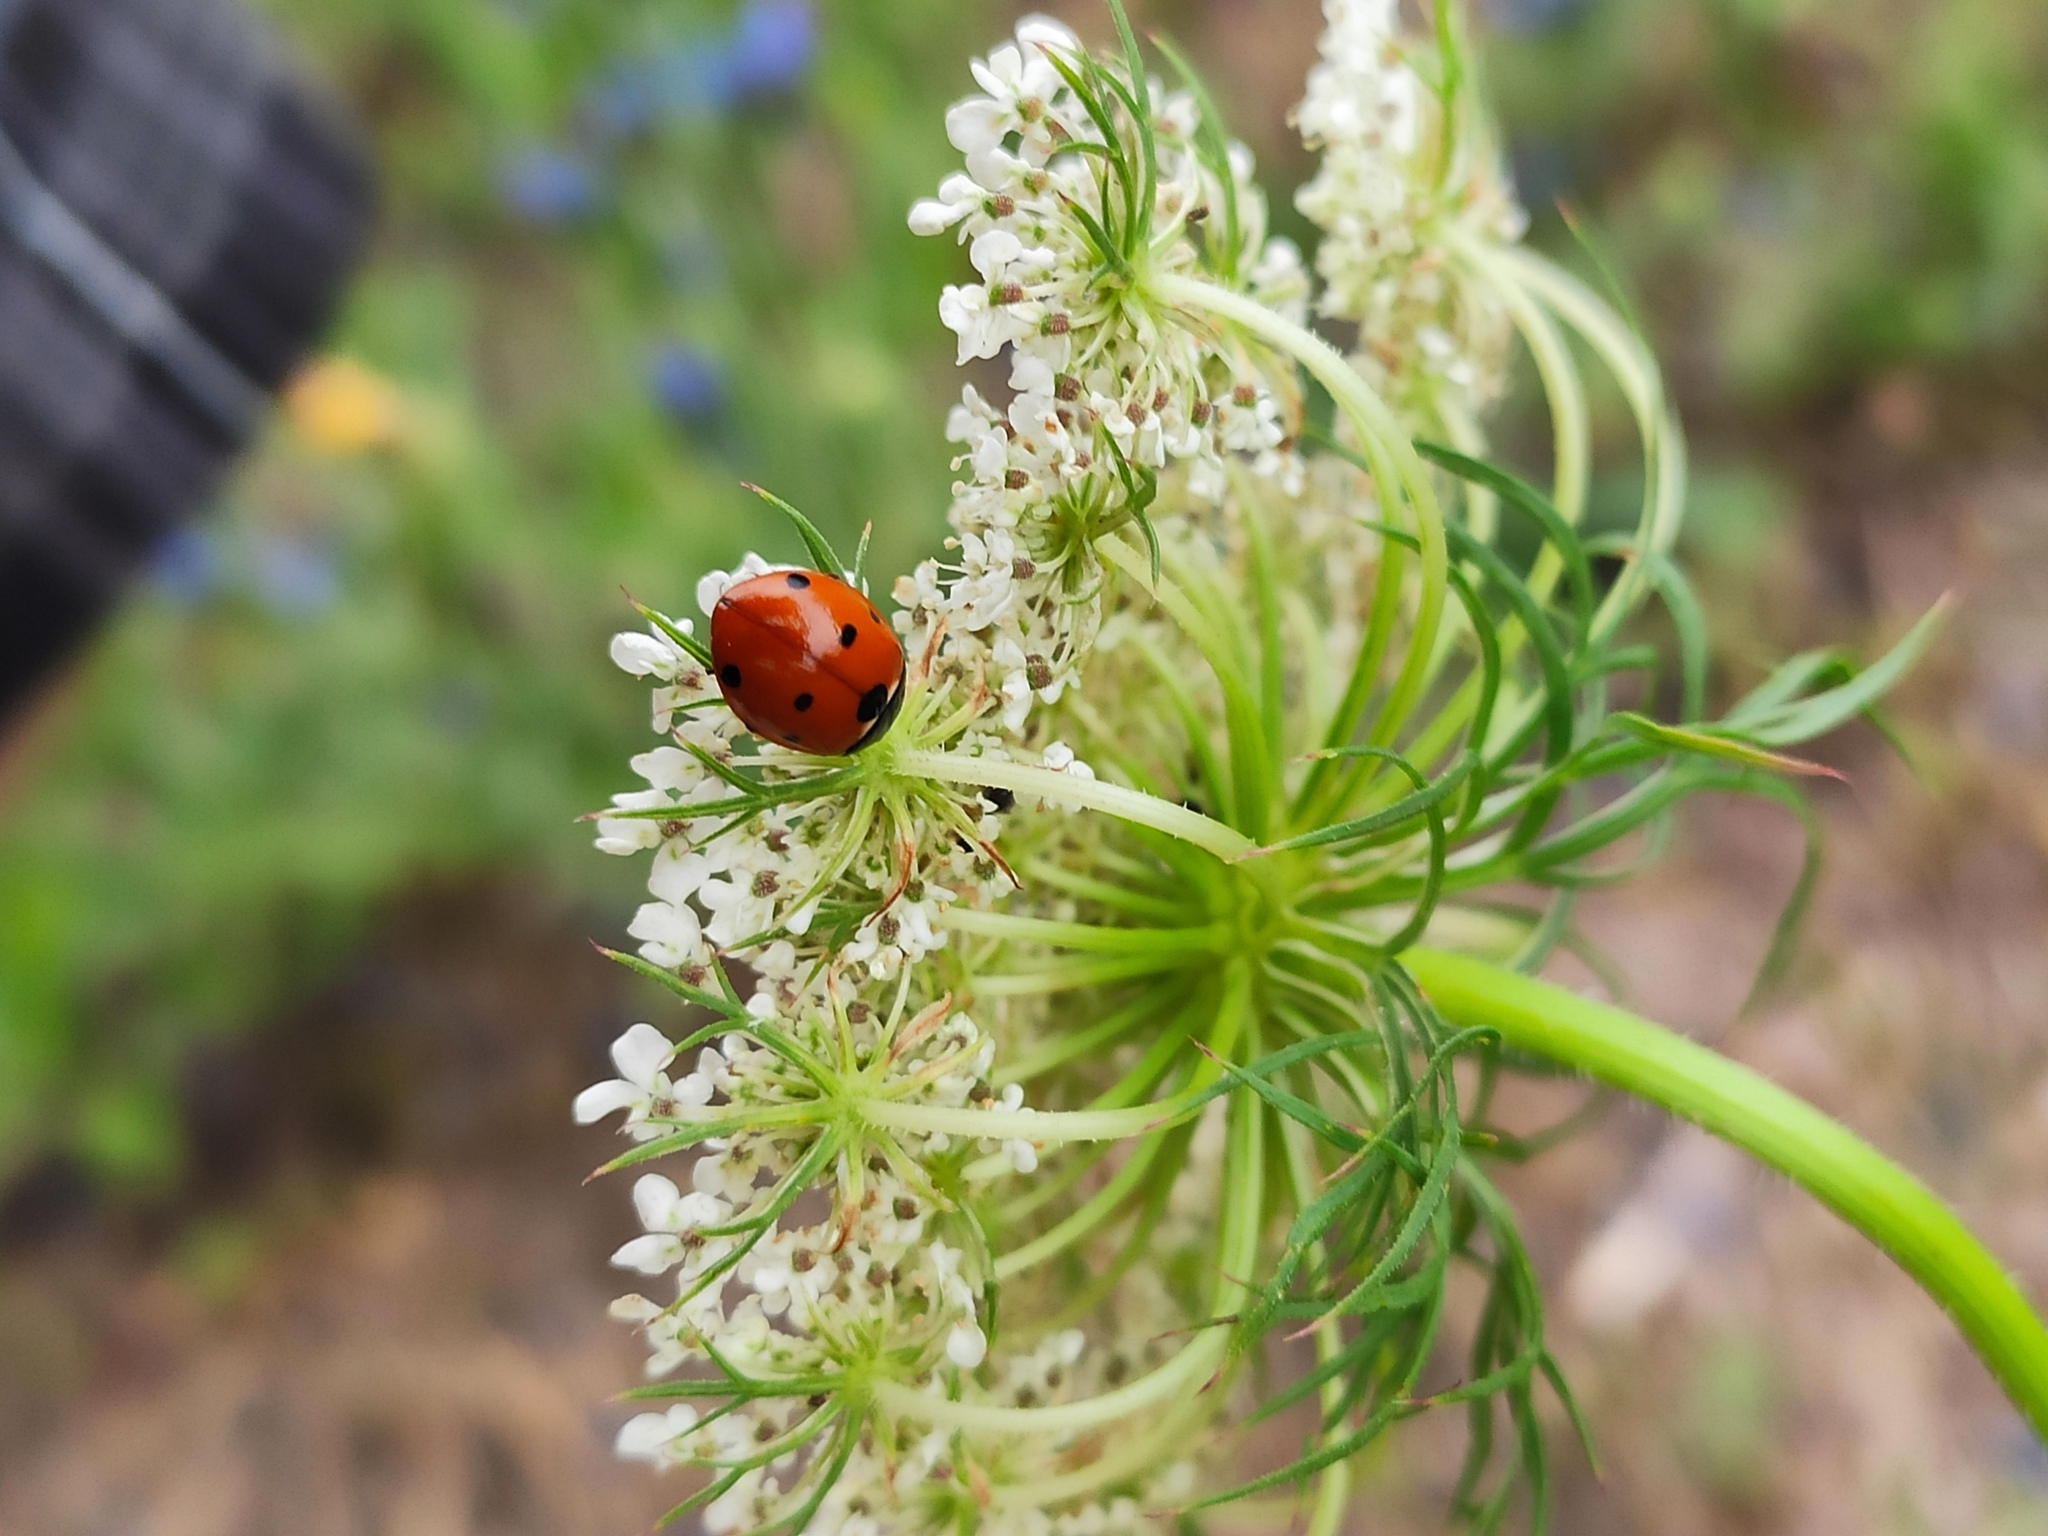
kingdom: Animalia
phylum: Arthropoda
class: Insecta
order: Coleoptera
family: Coccinellidae
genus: Coccinella
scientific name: Coccinella septempunctata
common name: Sevenspotted lady beetle
